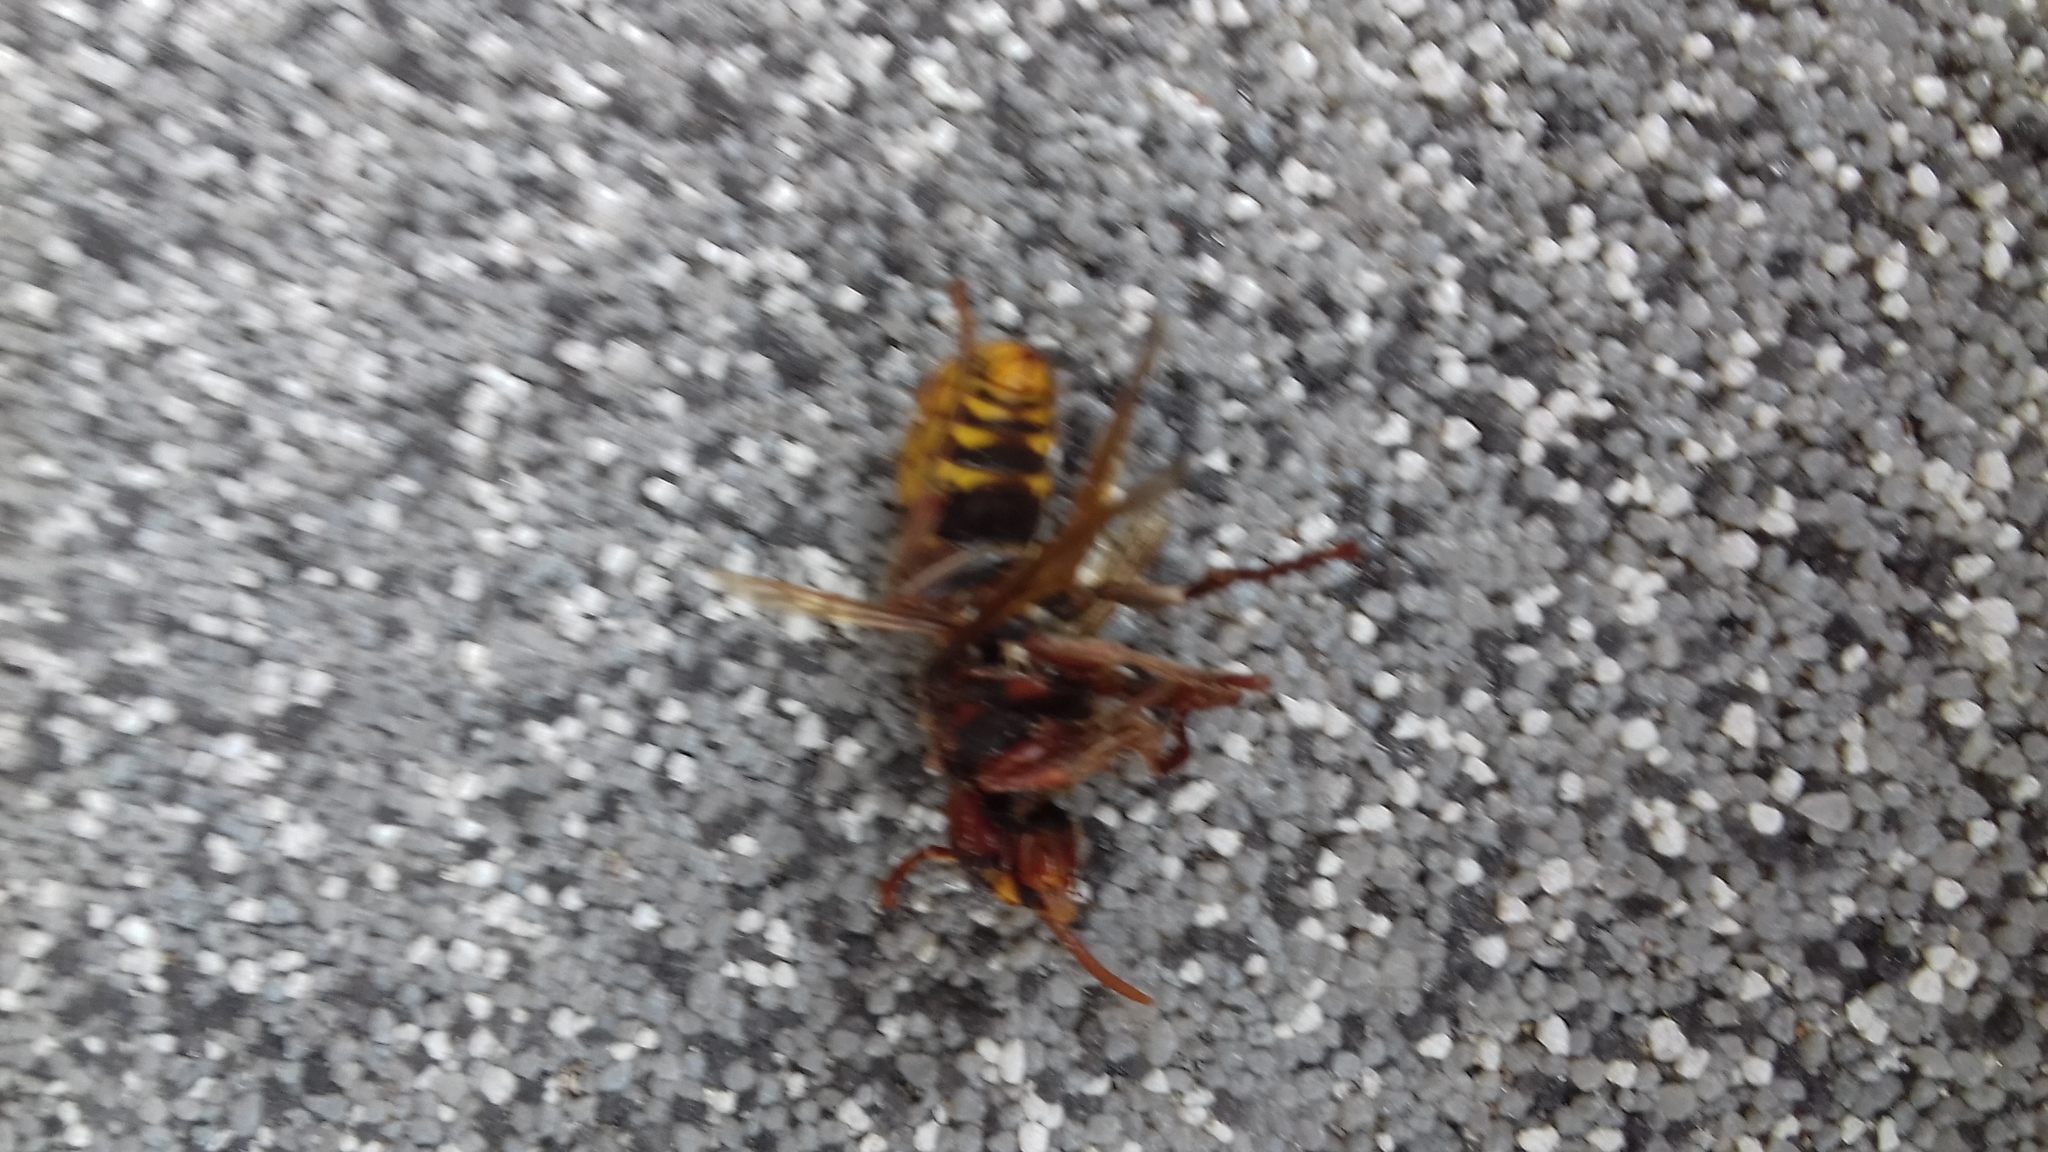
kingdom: Animalia
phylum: Arthropoda
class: Insecta
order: Hymenoptera
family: Vespidae
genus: Vespa
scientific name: Vespa crabro
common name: Hornet
